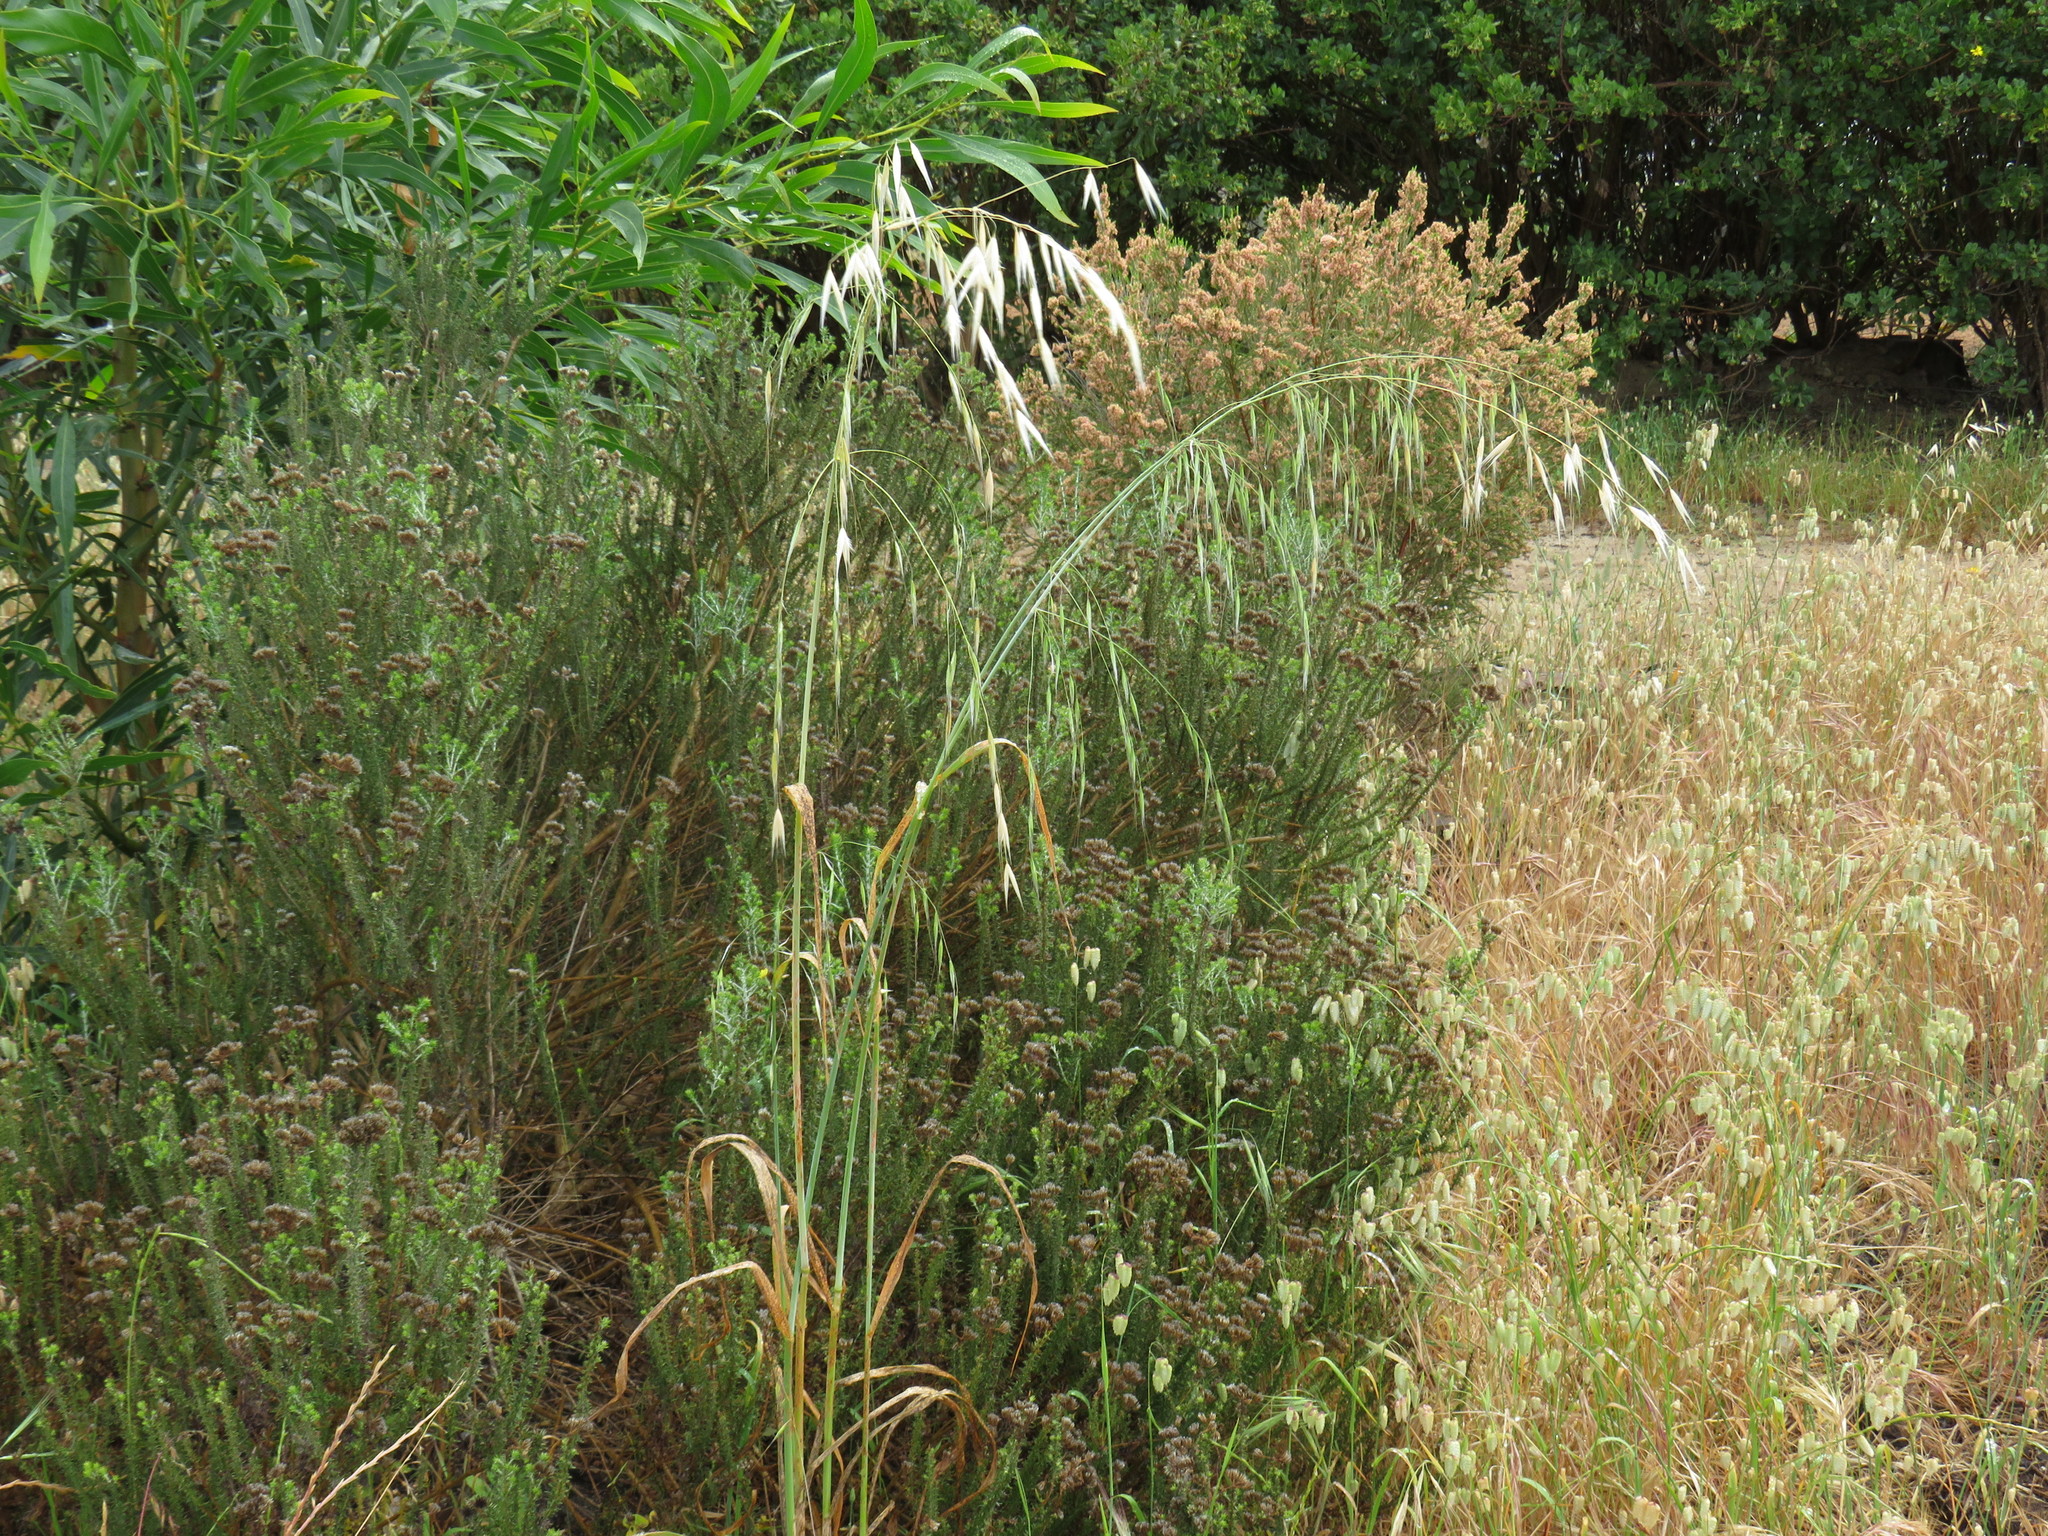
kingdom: Plantae
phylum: Tracheophyta
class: Liliopsida
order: Poales
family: Poaceae
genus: Avena
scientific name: Avena fatua
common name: Wild oat
